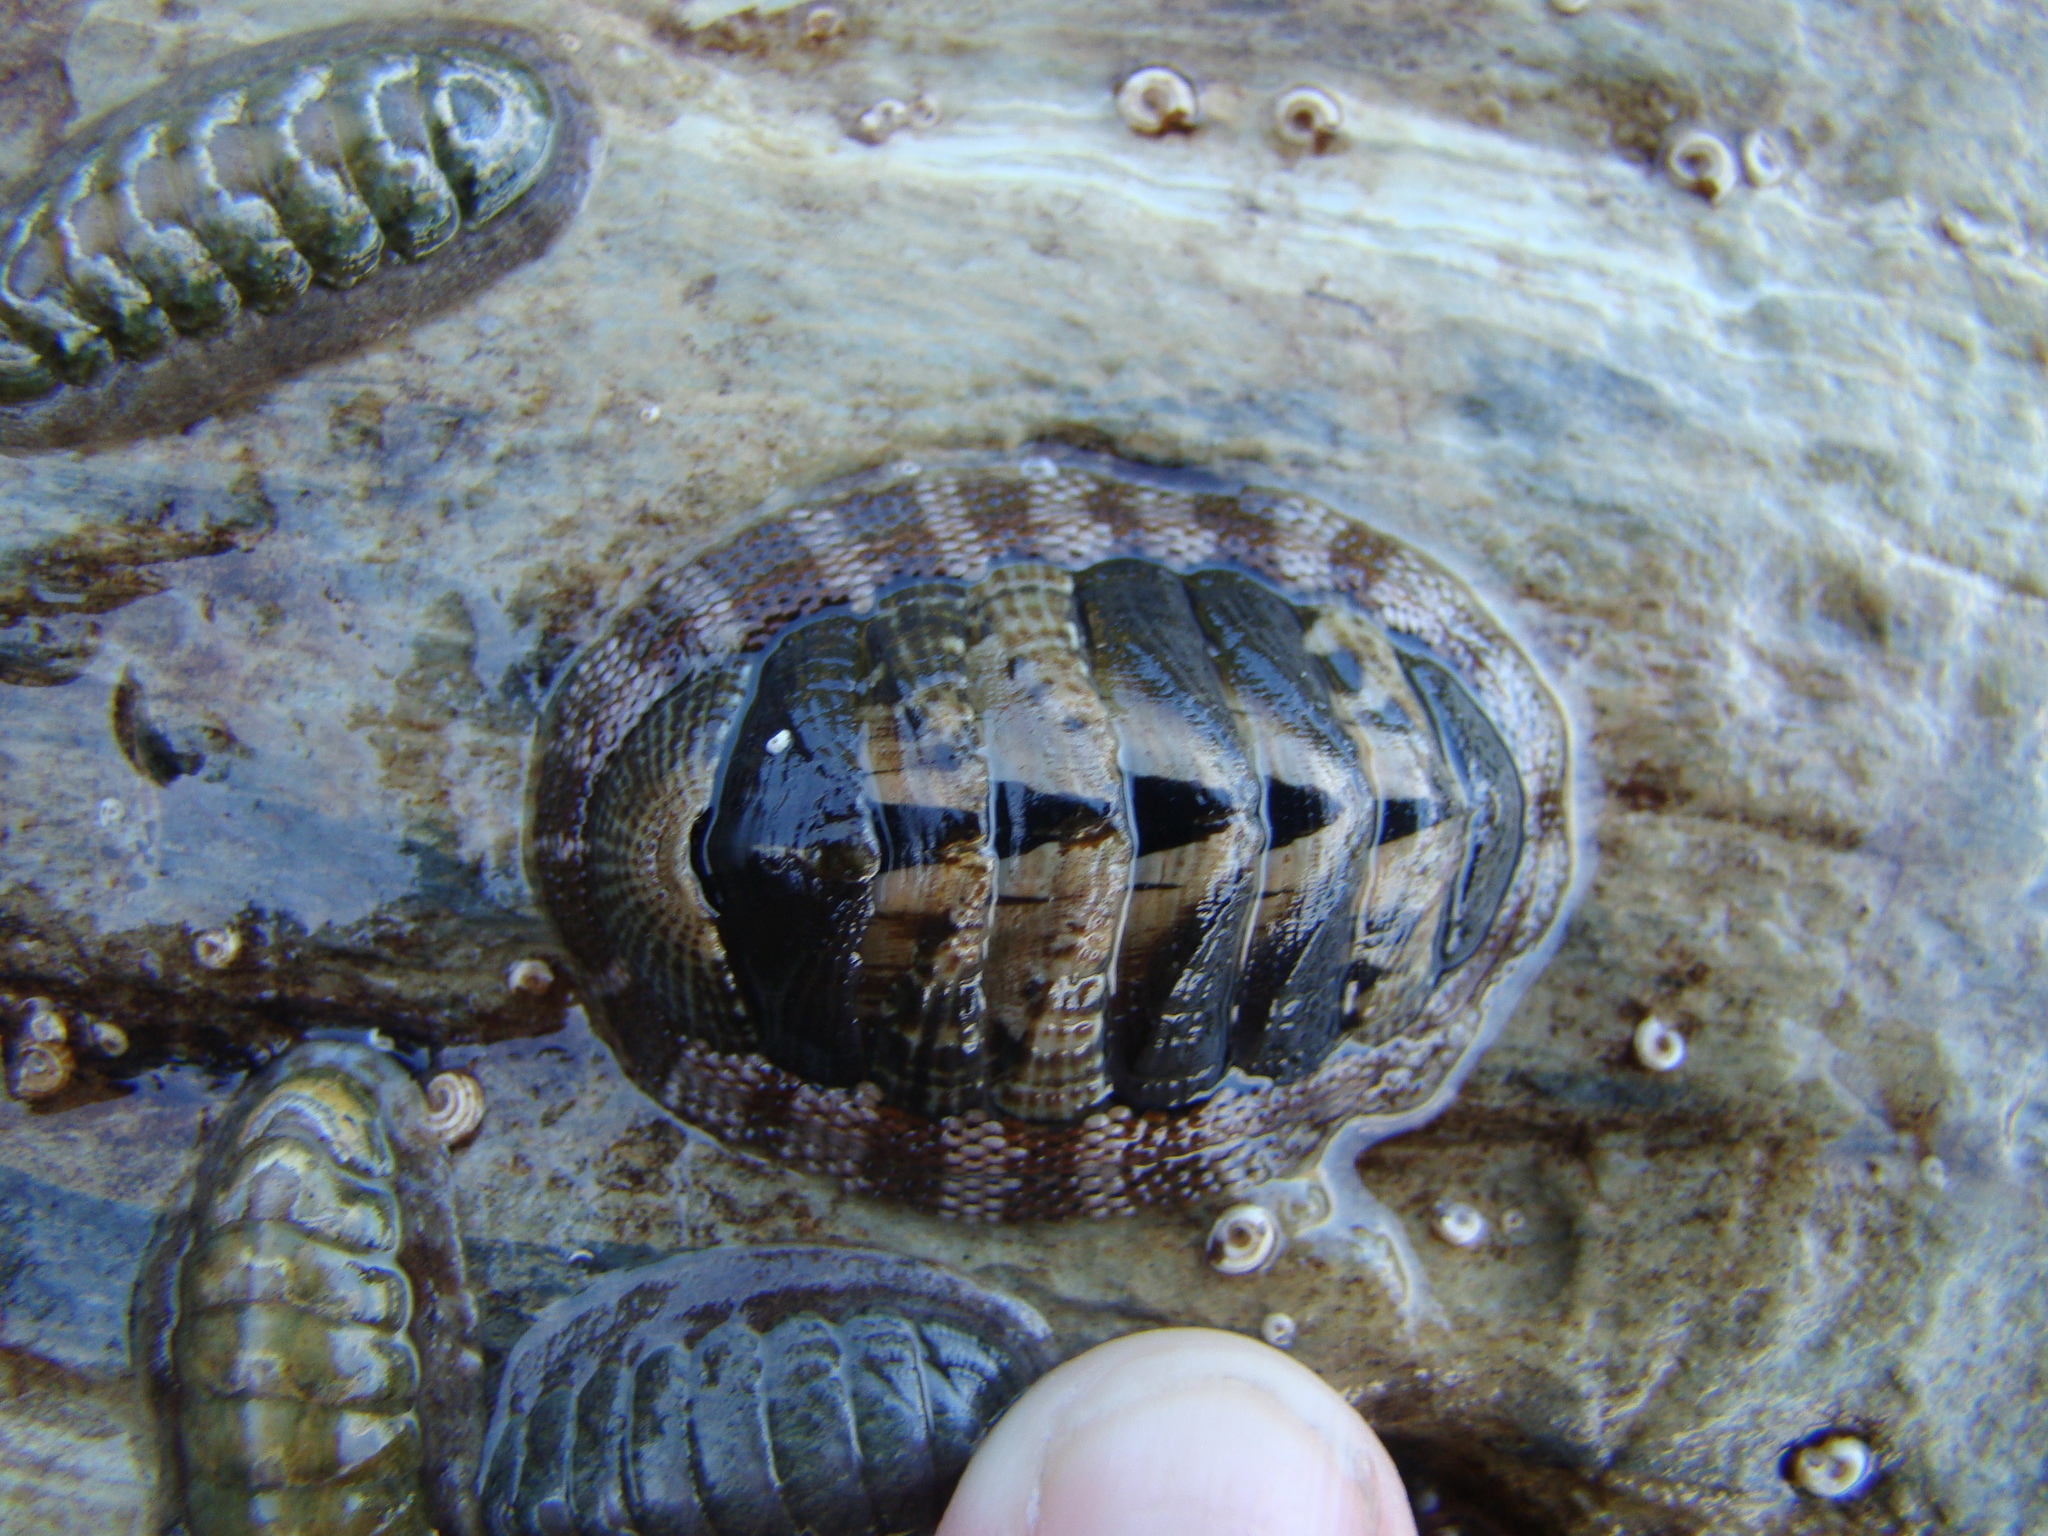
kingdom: Animalia
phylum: Mollusca
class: Polyplacophora
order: Chitonida
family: Chitonidae
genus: Sypharochiton
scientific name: Sypharochiton pelliserpentis
